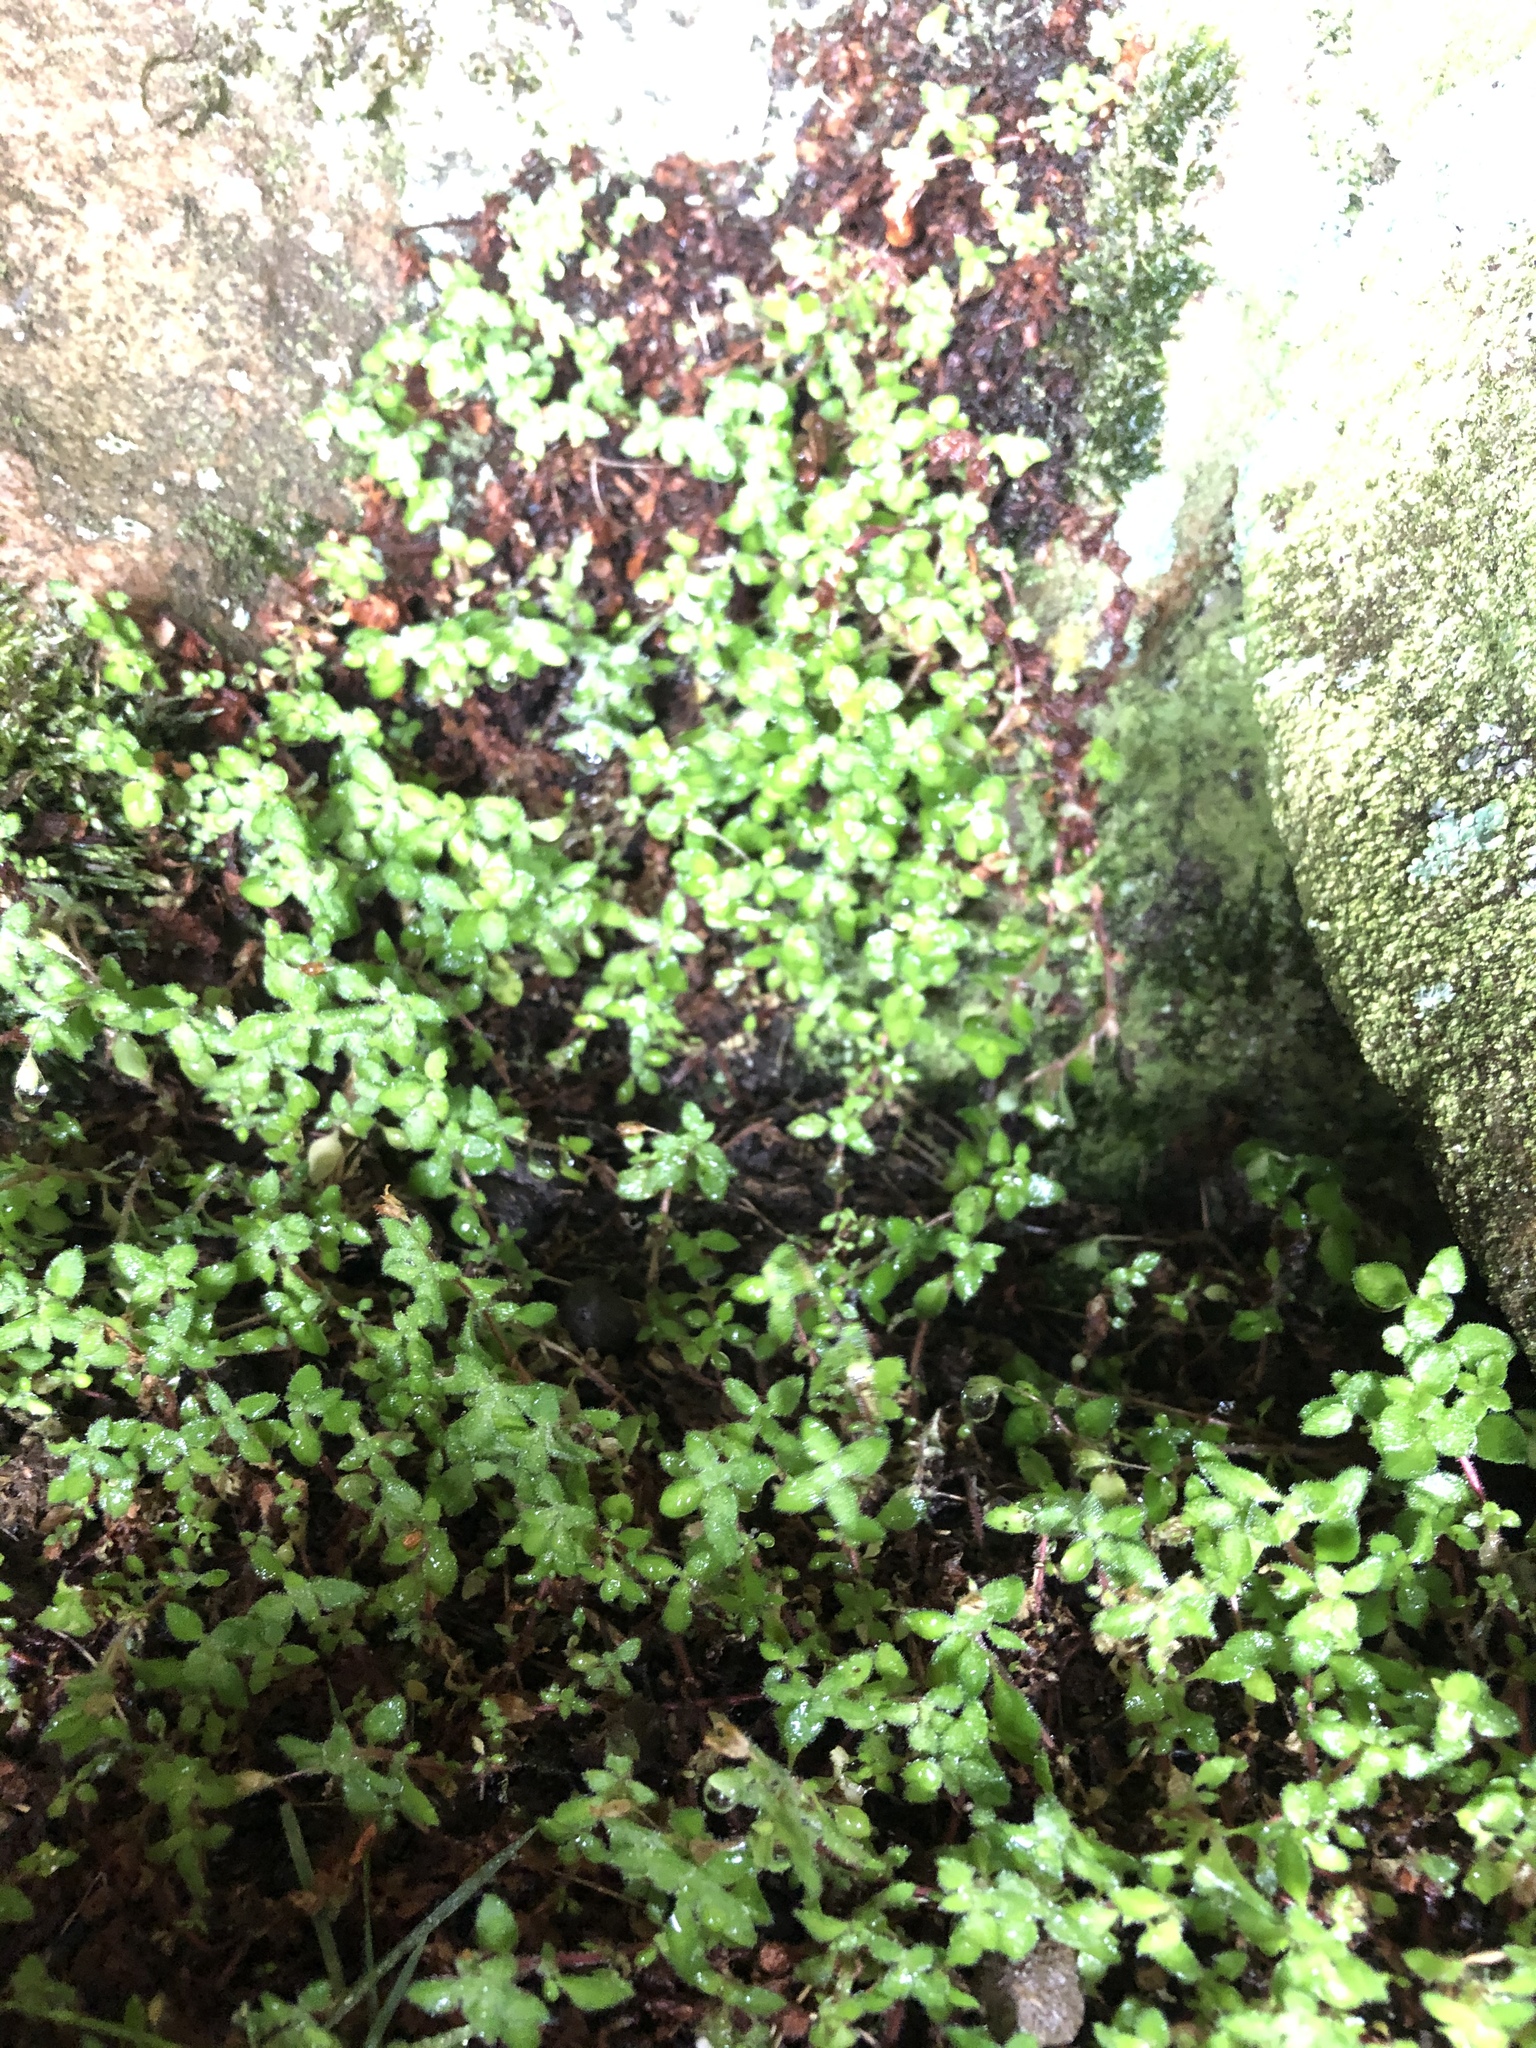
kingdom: Plantae
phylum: Tracheophyta
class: Magnoliopsida
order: Saxifragales
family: Crassulaceae
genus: Crassula
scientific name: Crassula peculiaris
